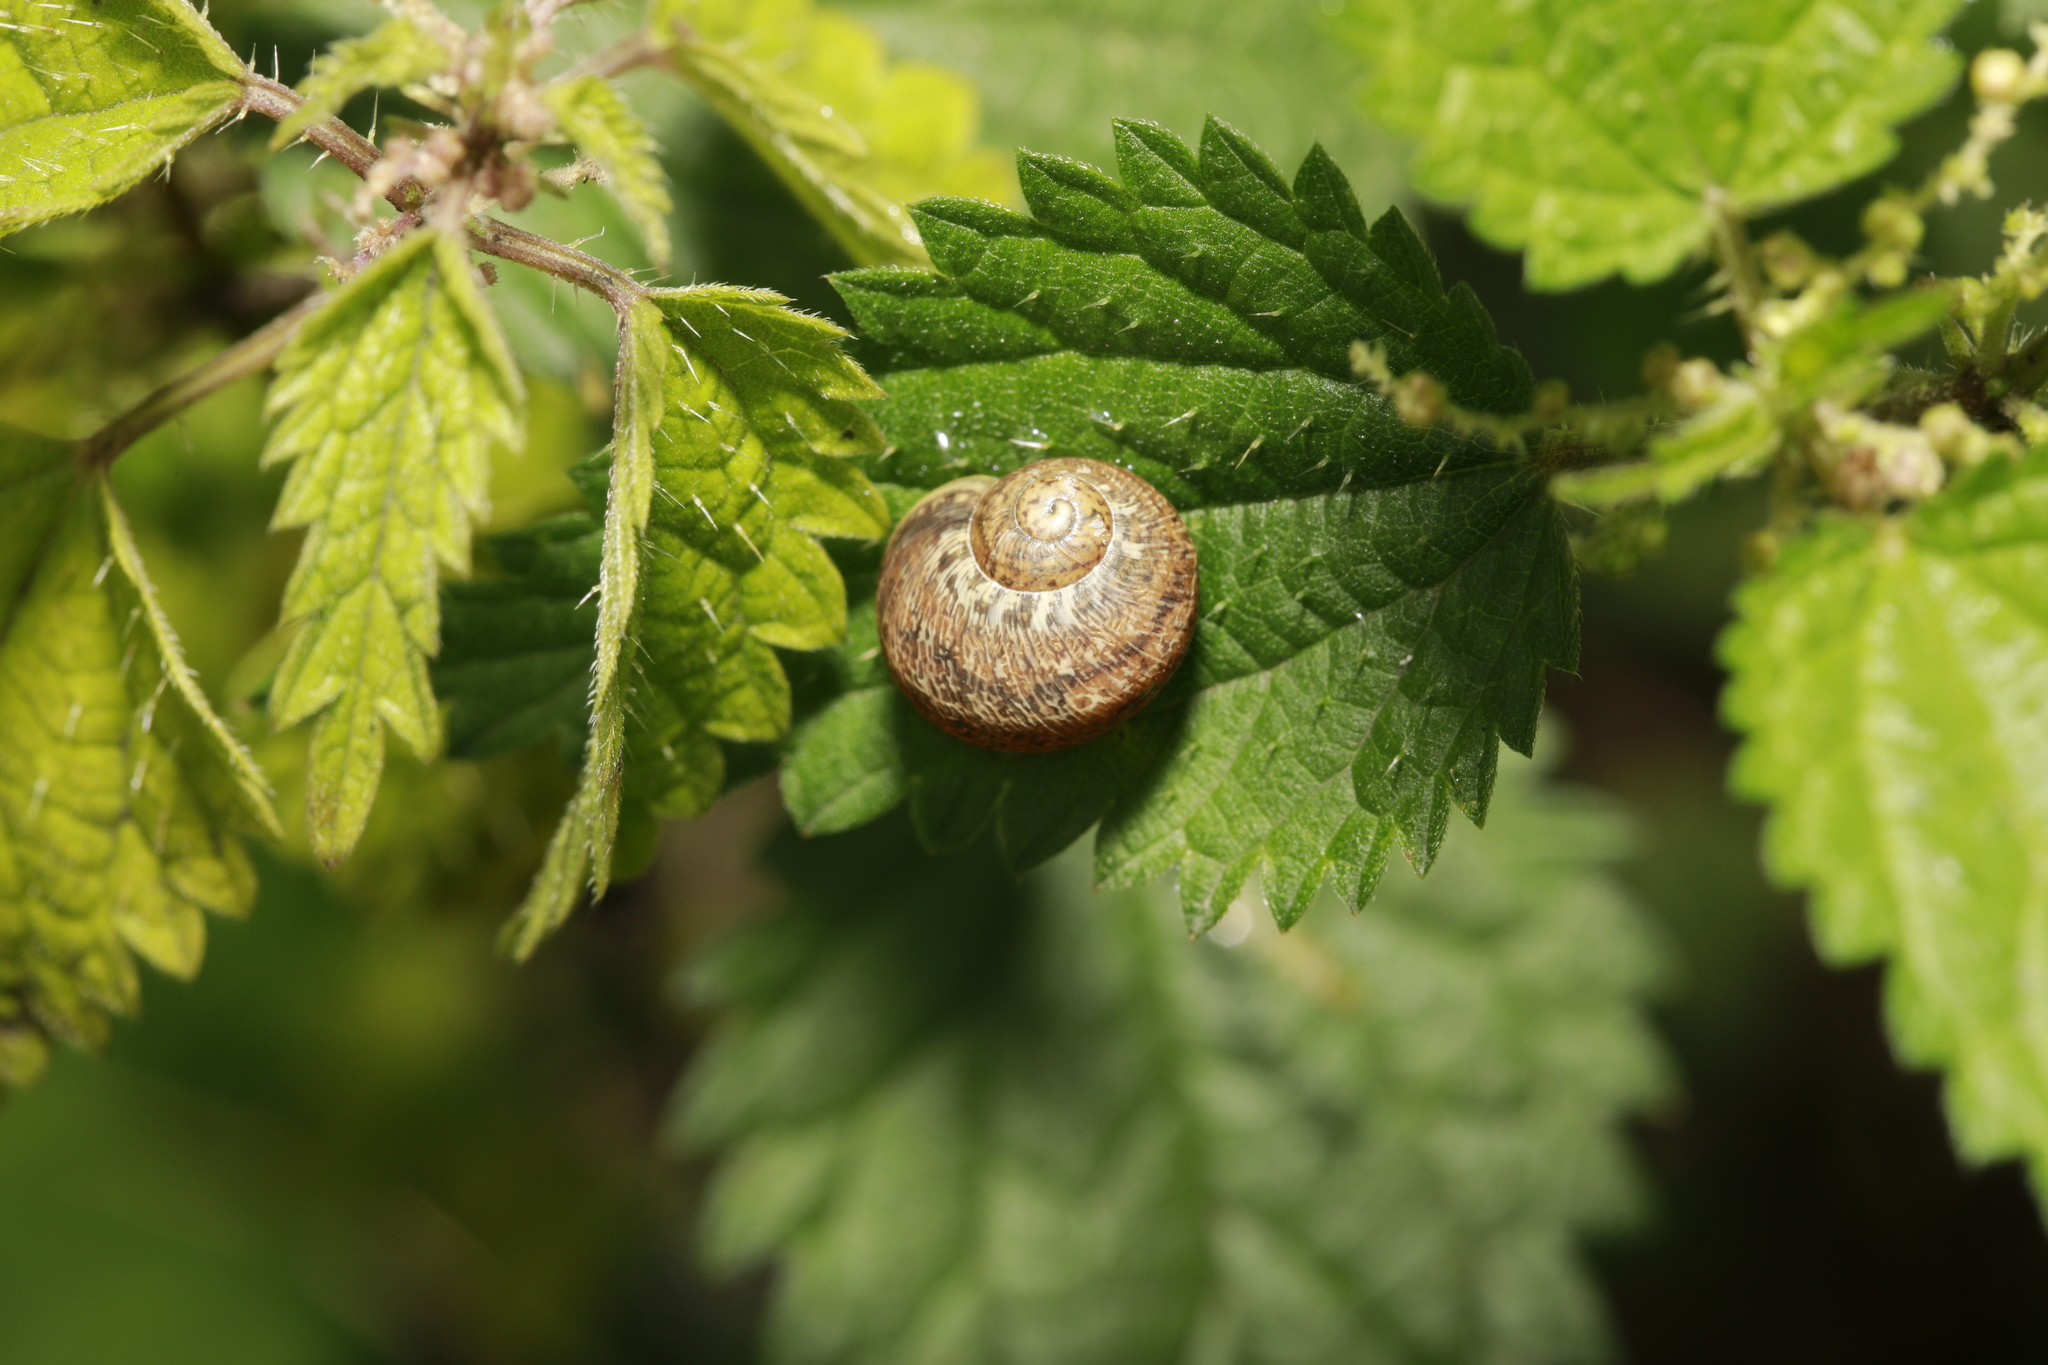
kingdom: Animalia
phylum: Mollusca
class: Gastropoda
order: Stylommatophora
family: Helicidae
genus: Cornu
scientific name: Cornu aspersum
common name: Brown garden snail
